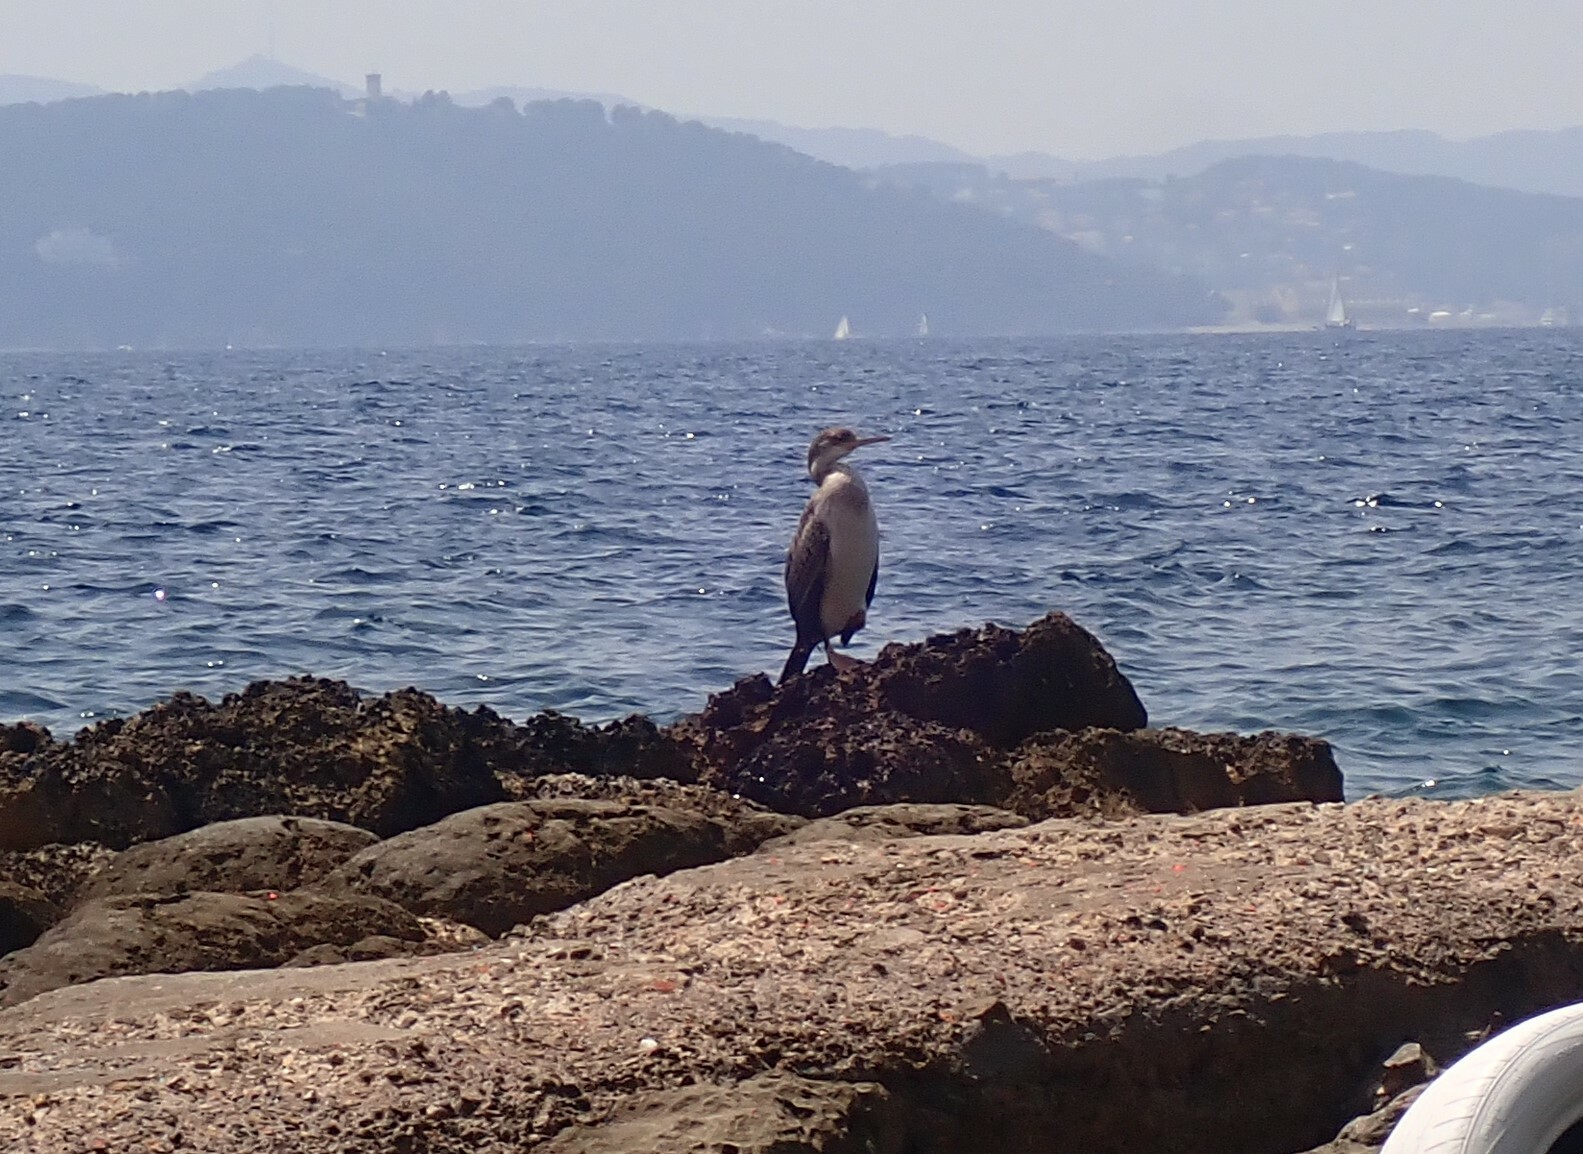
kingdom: Animalia
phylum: Chordata
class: Aves
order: Suliformes
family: Phalacrocoracidae
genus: Phalacrocorax
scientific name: Phalacrocorax aristotelis
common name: European shag
